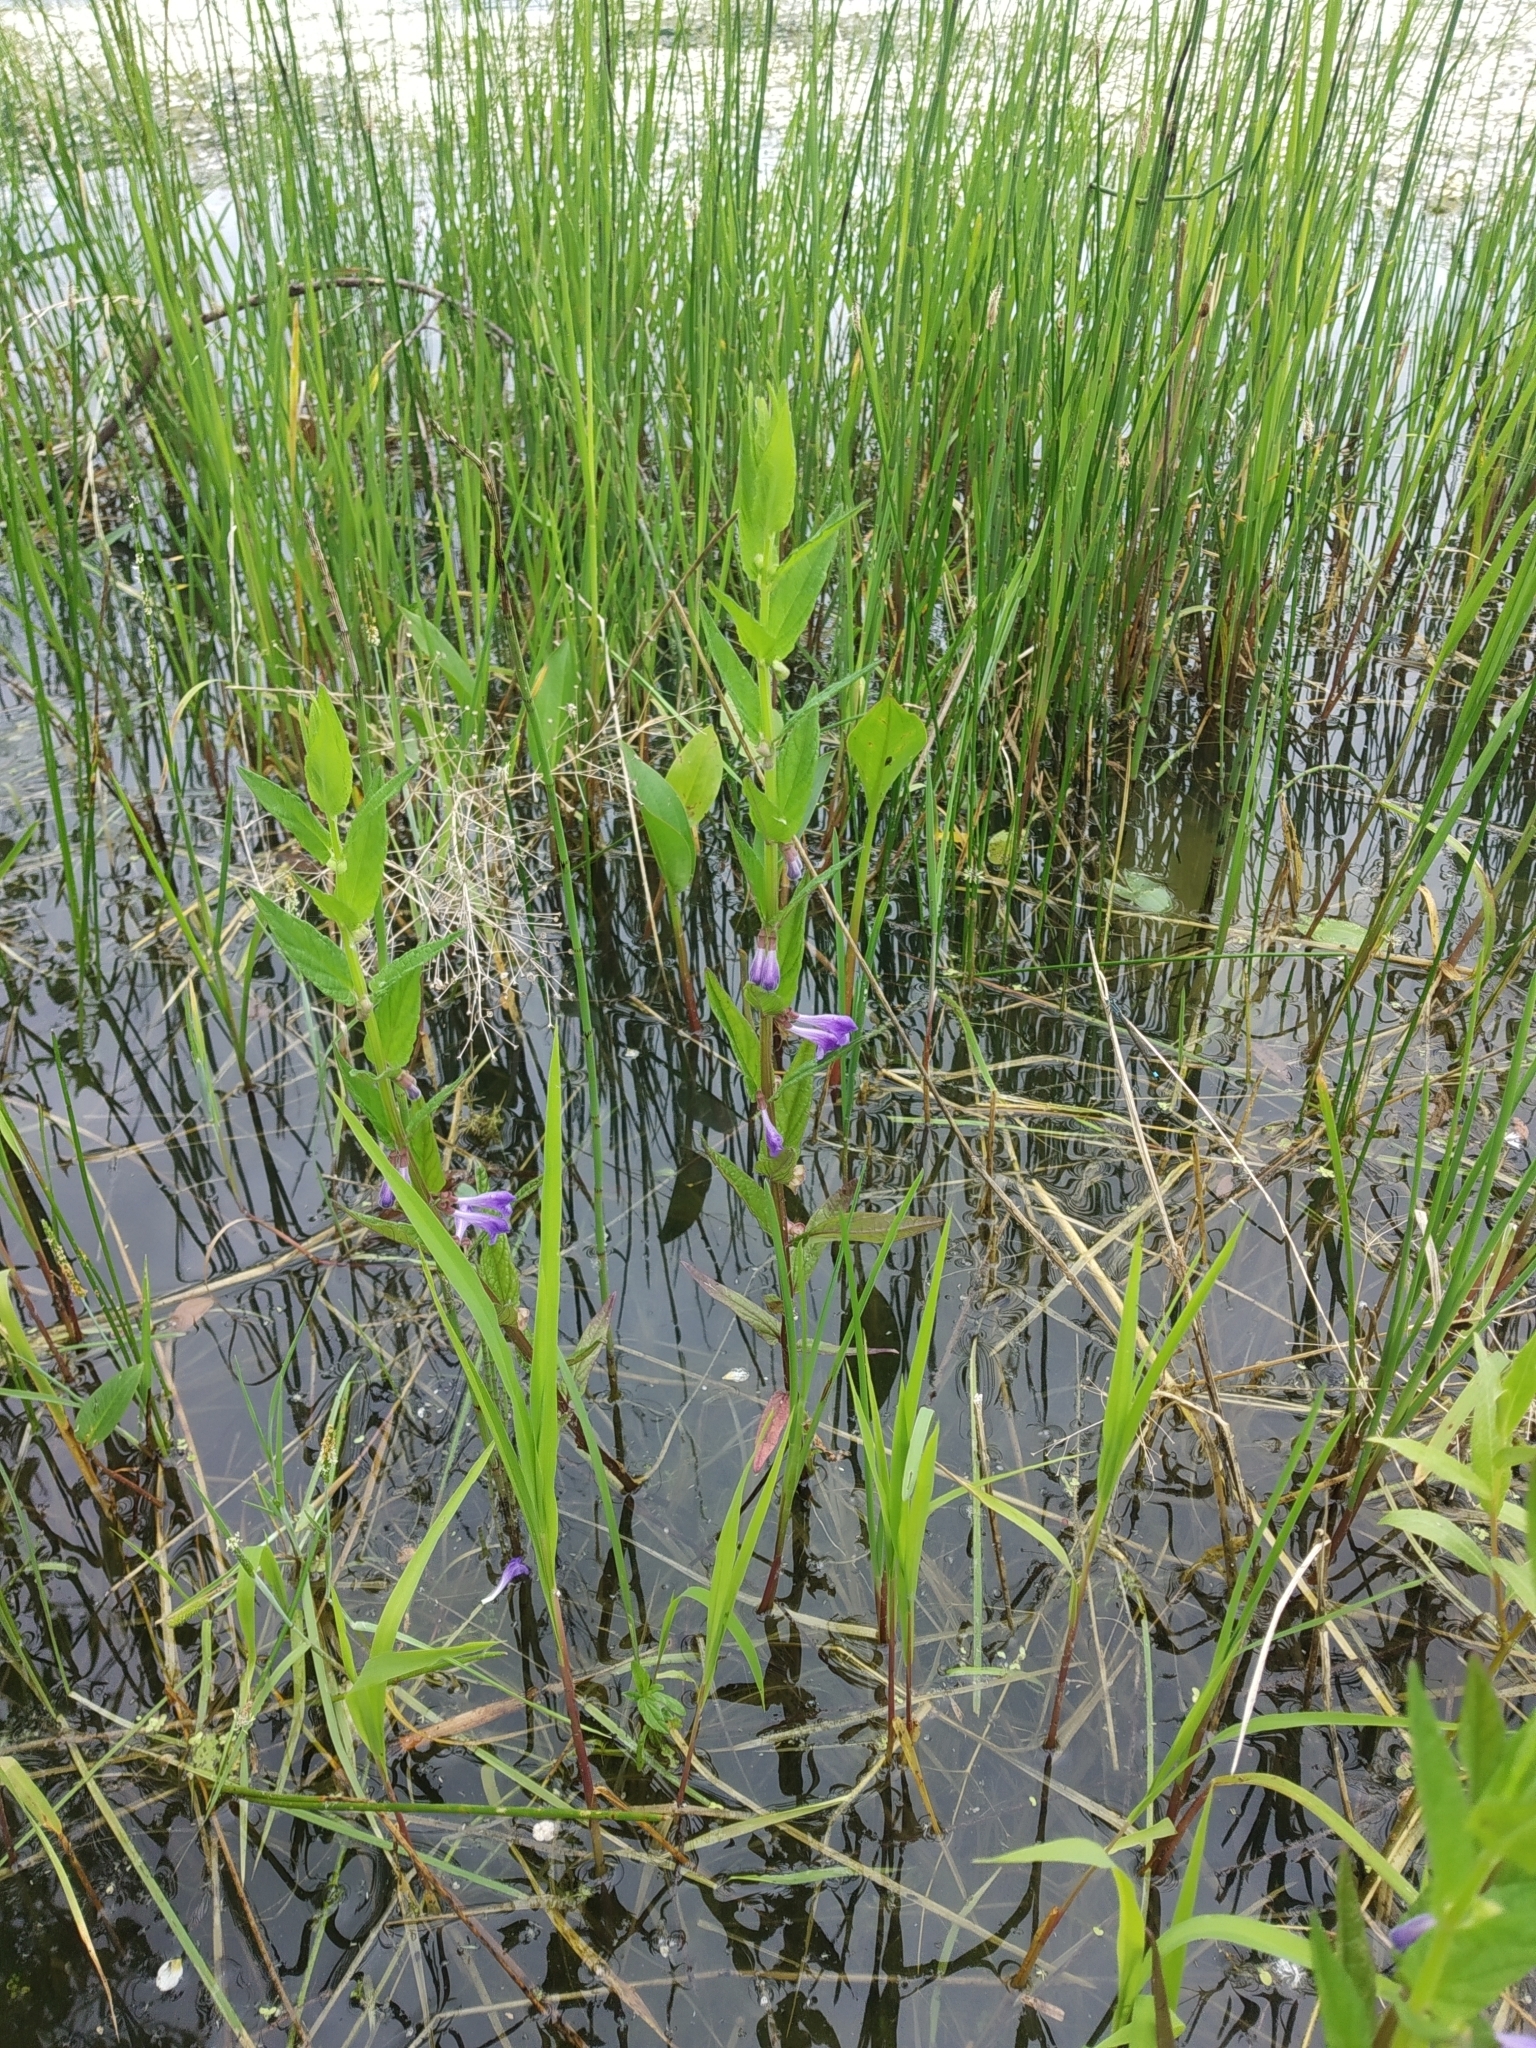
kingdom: Plantae
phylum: Tracheophyta
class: Magnoliopsida
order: Lamiales
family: Lamiaceae
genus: Scutellaria
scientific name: Scutellaria galericulata
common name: Skullcap
